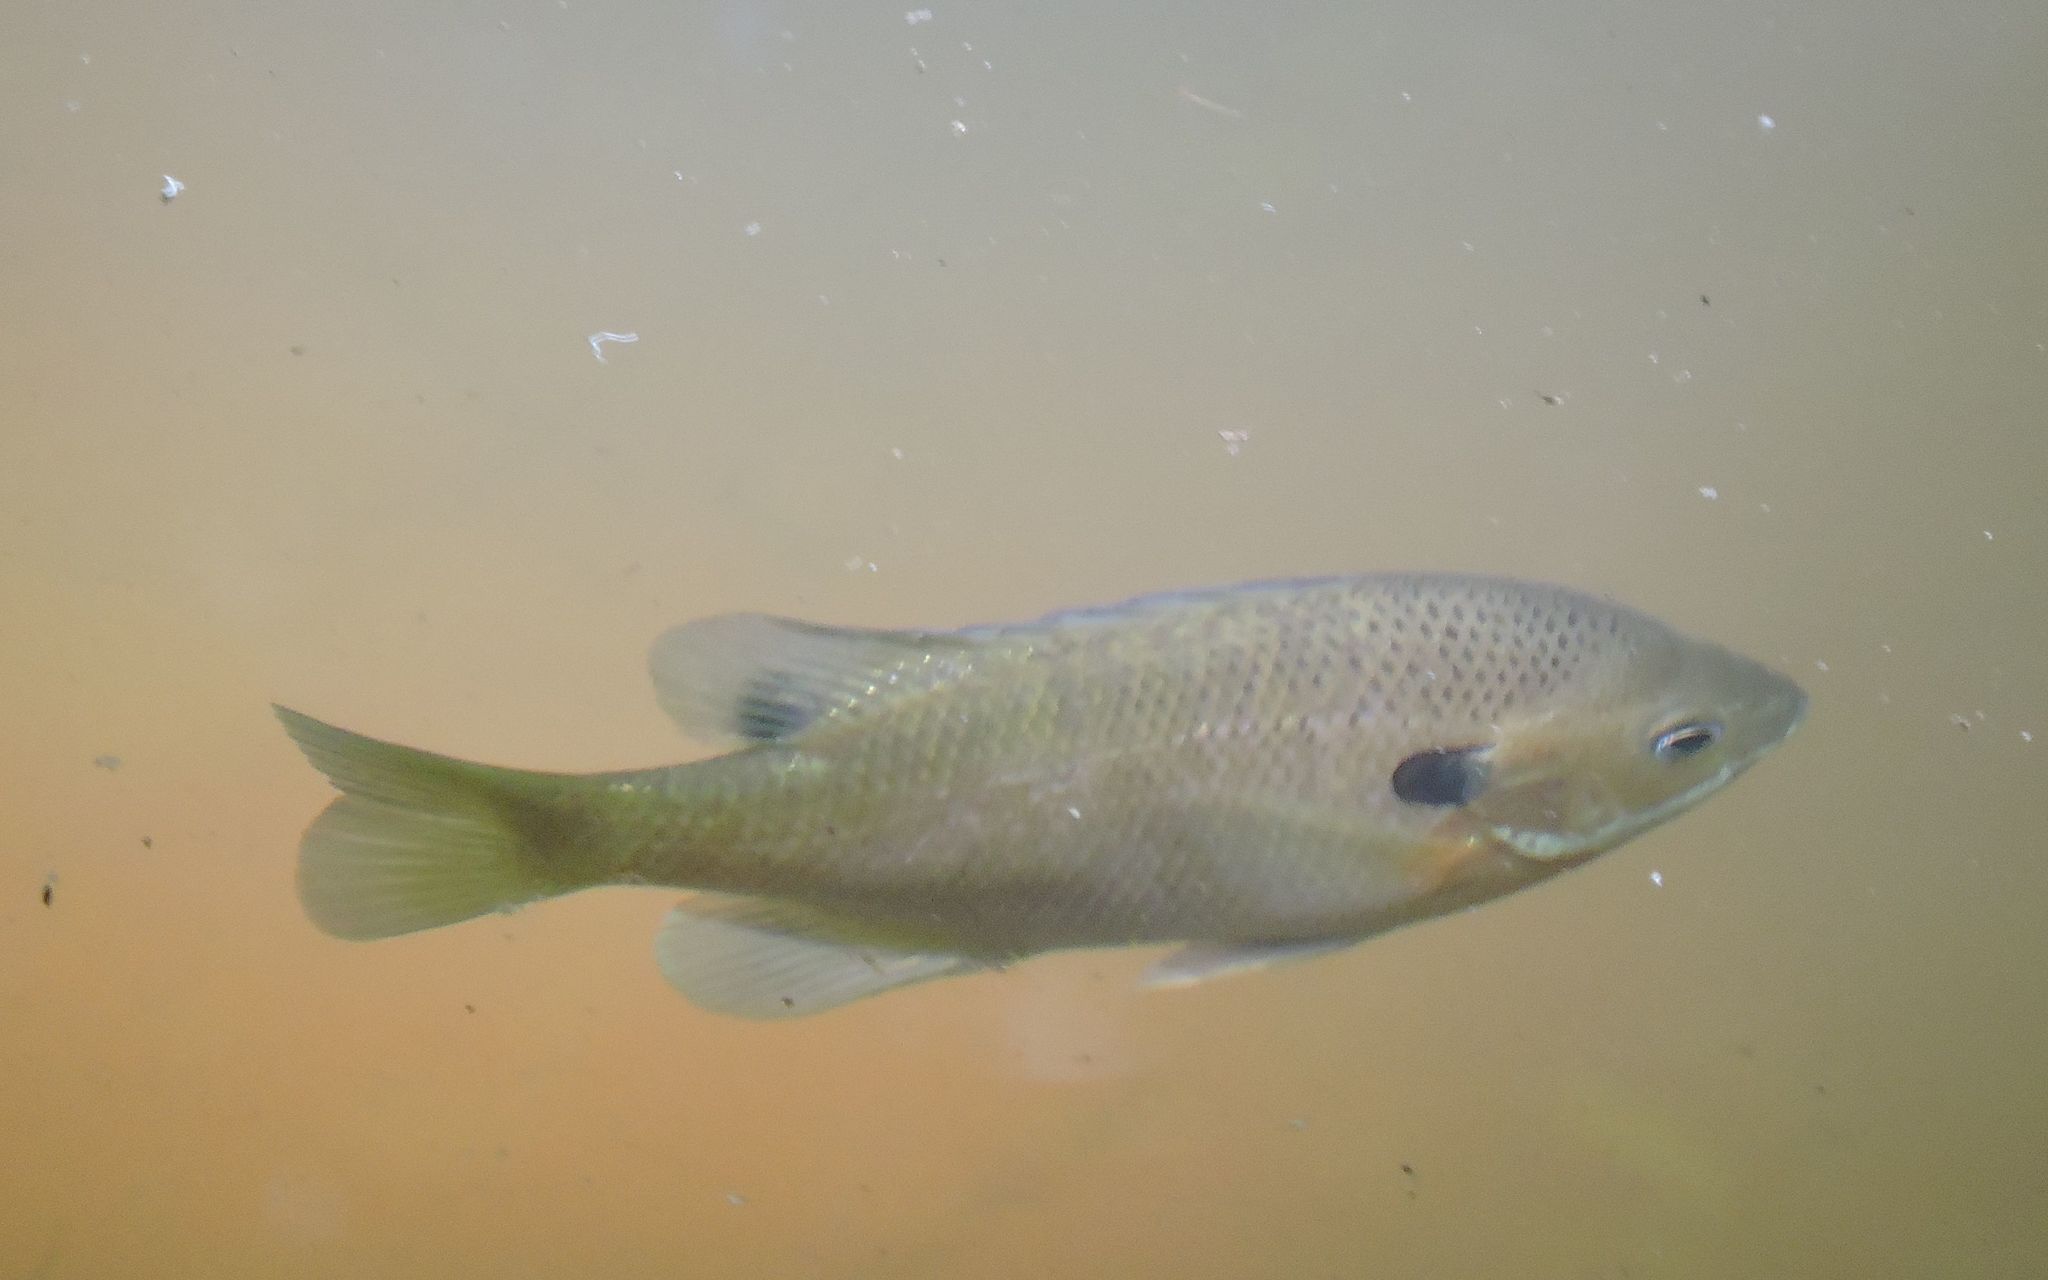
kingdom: Animalia
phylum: Chordata
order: Perciformes
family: Centrarchidae
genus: Lepomis
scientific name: Lepomis macrochirus
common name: Bluegill
